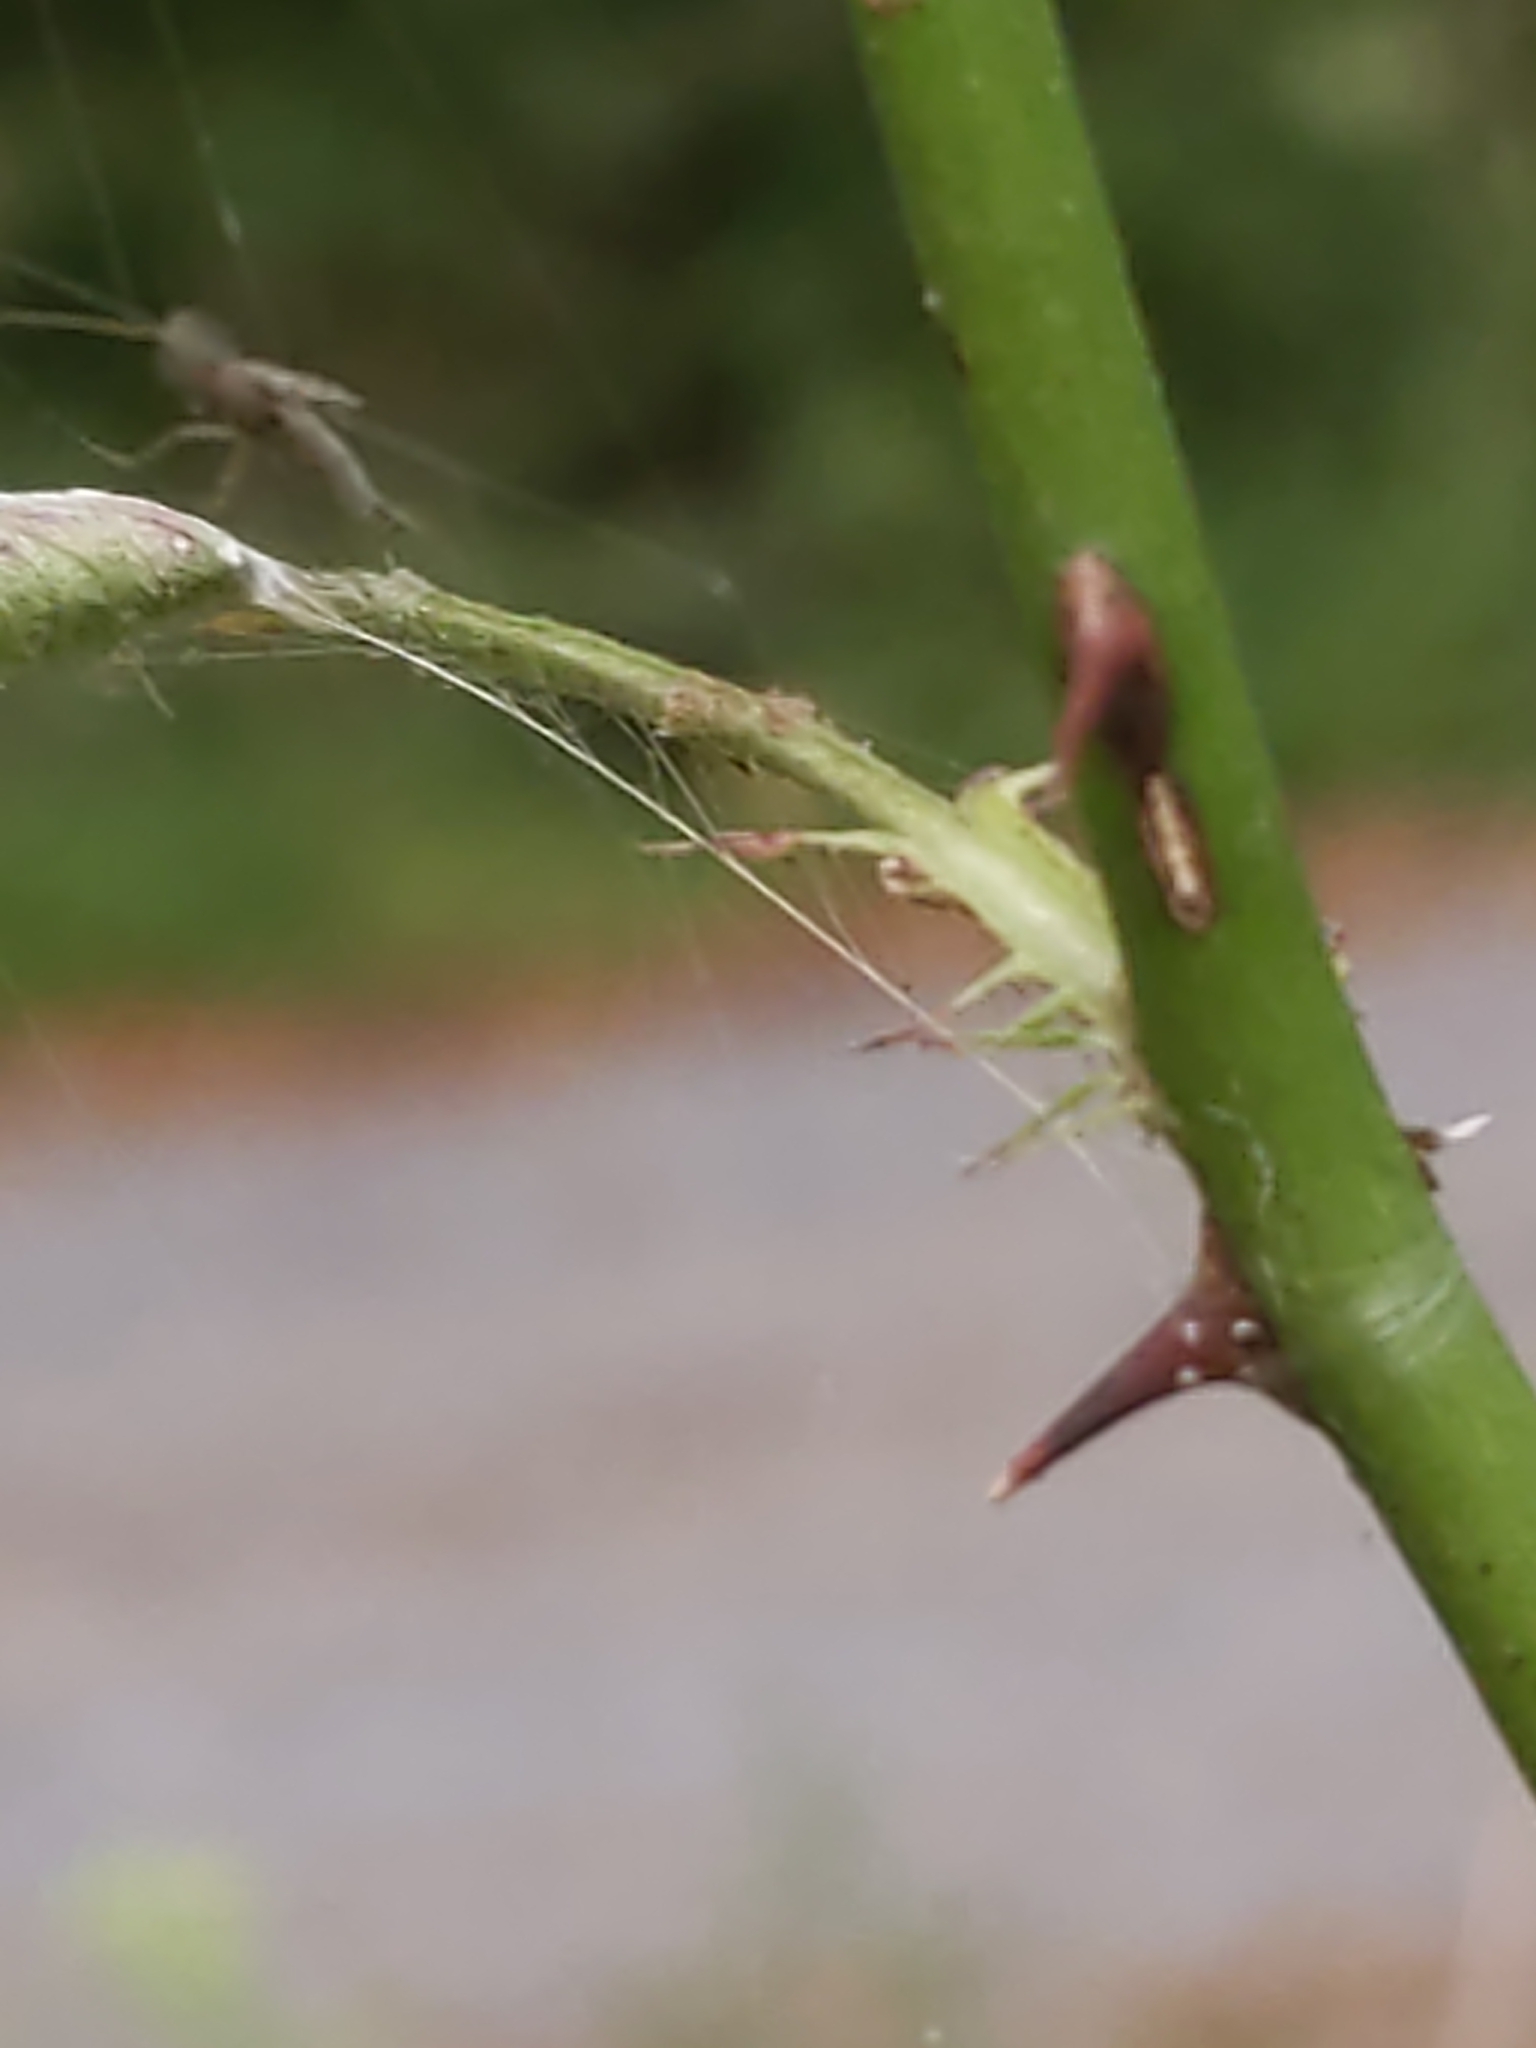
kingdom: Plantae
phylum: Tracheophyta
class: Magnoliopsida
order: Rosales
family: Rosaceae
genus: Rosa
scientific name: Rosa multiflora
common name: Multiflora rose
